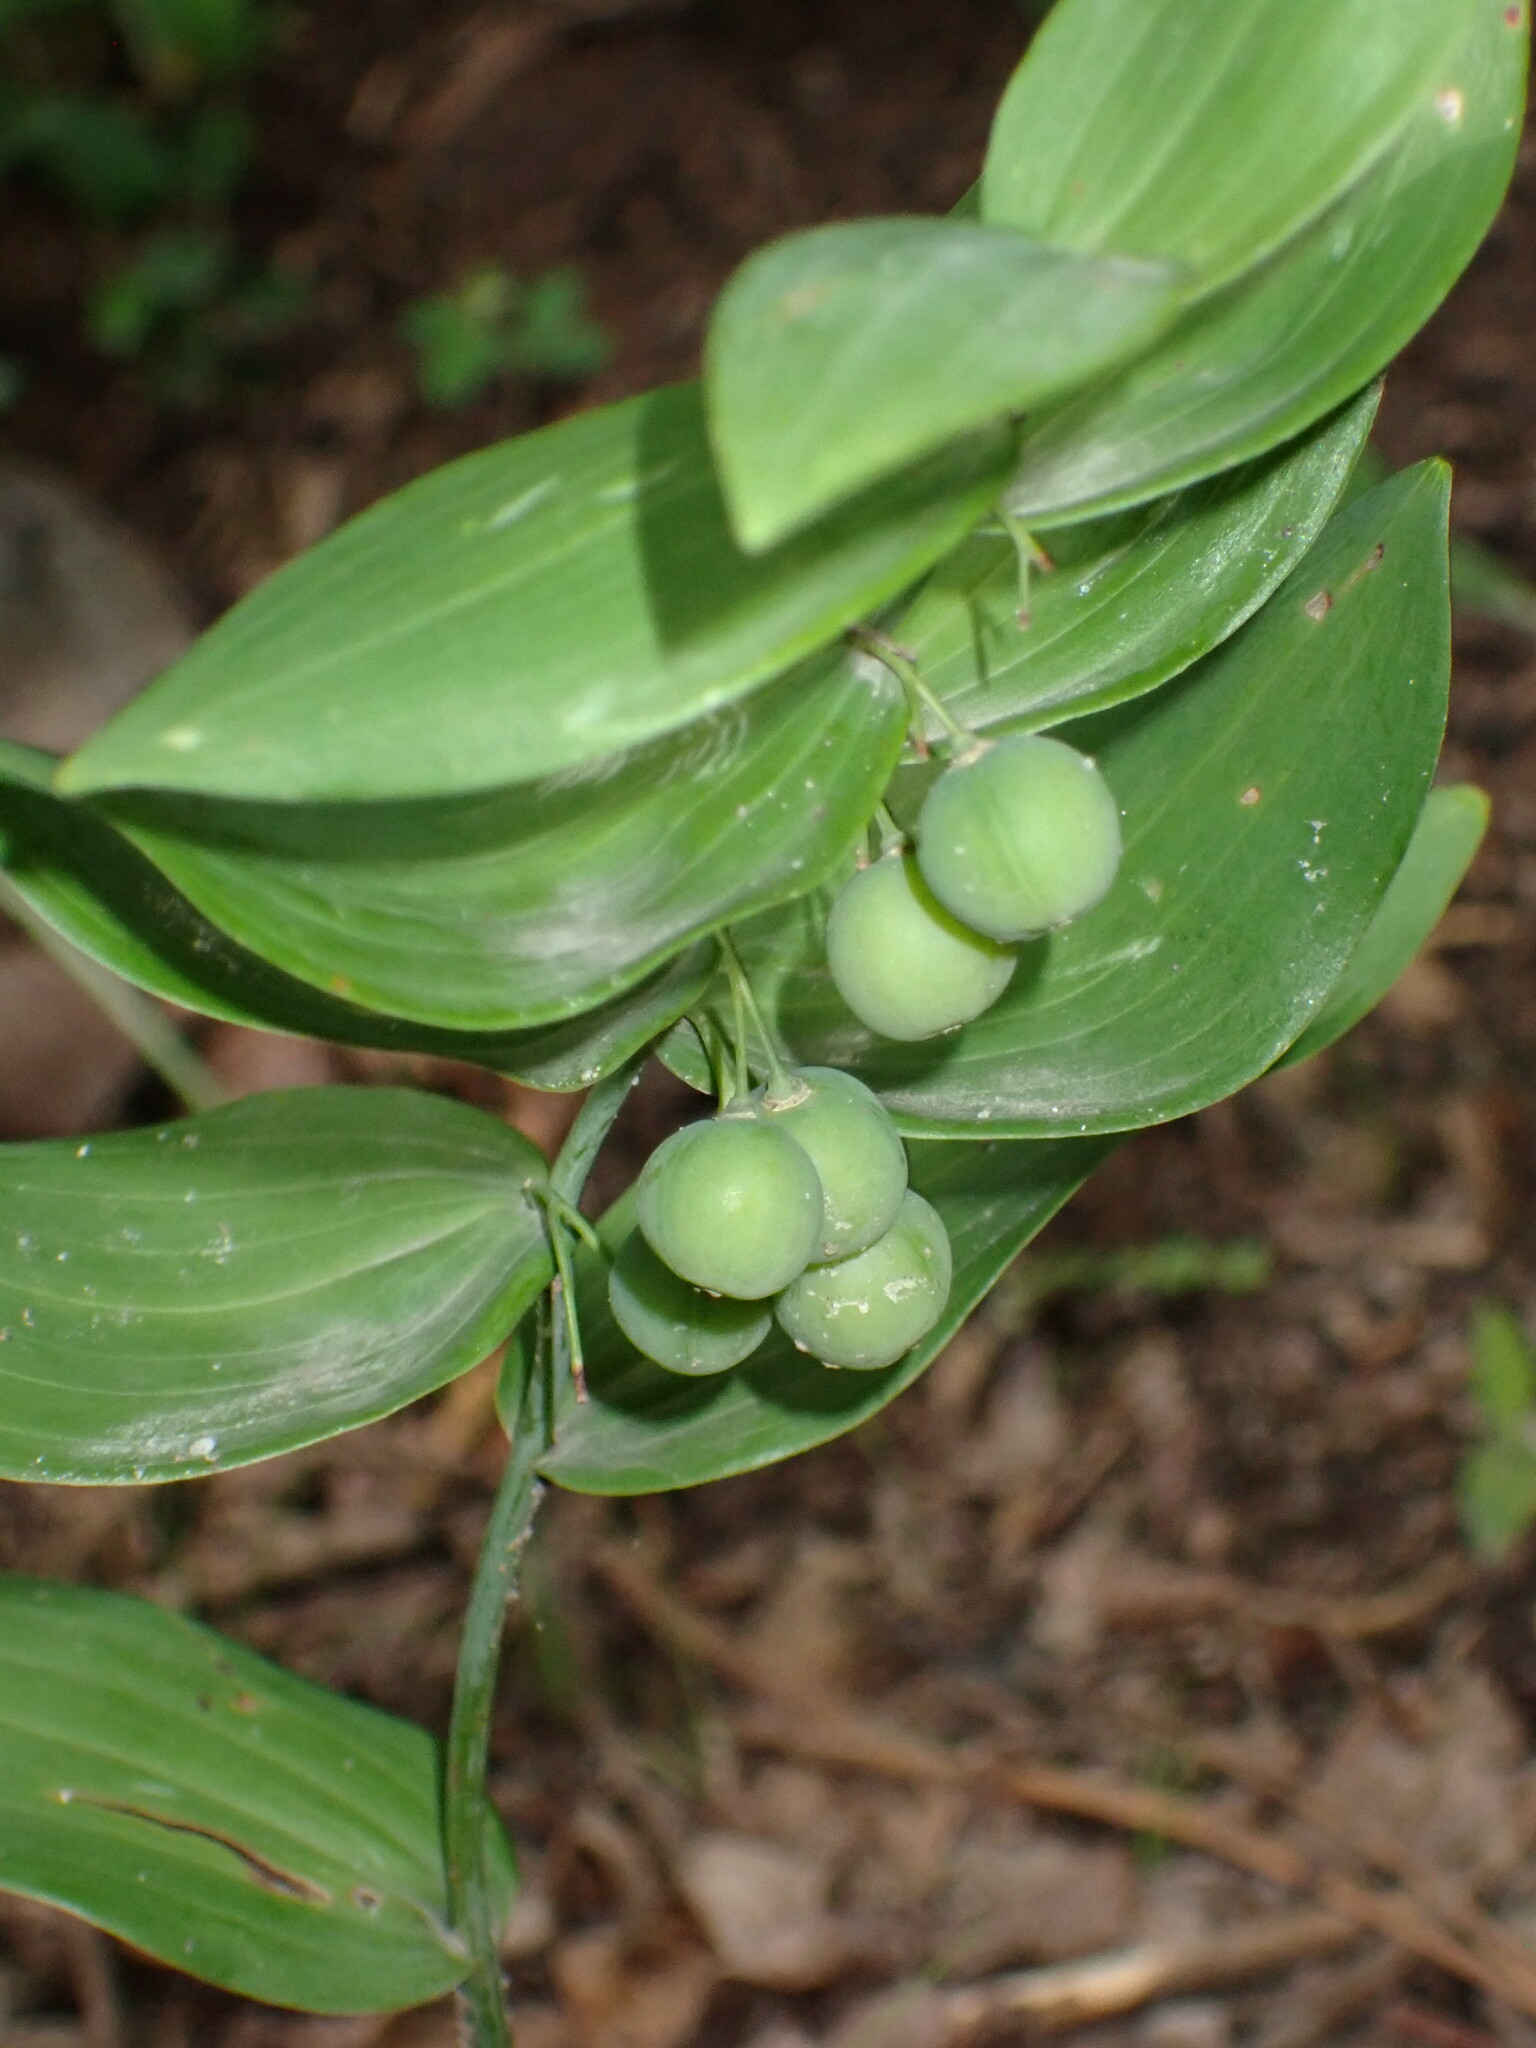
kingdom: Plantae
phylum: Tracheophyta
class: Liliopsida
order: Asparagales
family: Asparagaceae
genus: Polygonatum
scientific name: Polygonatum biflorum
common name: American solomon's-seal
